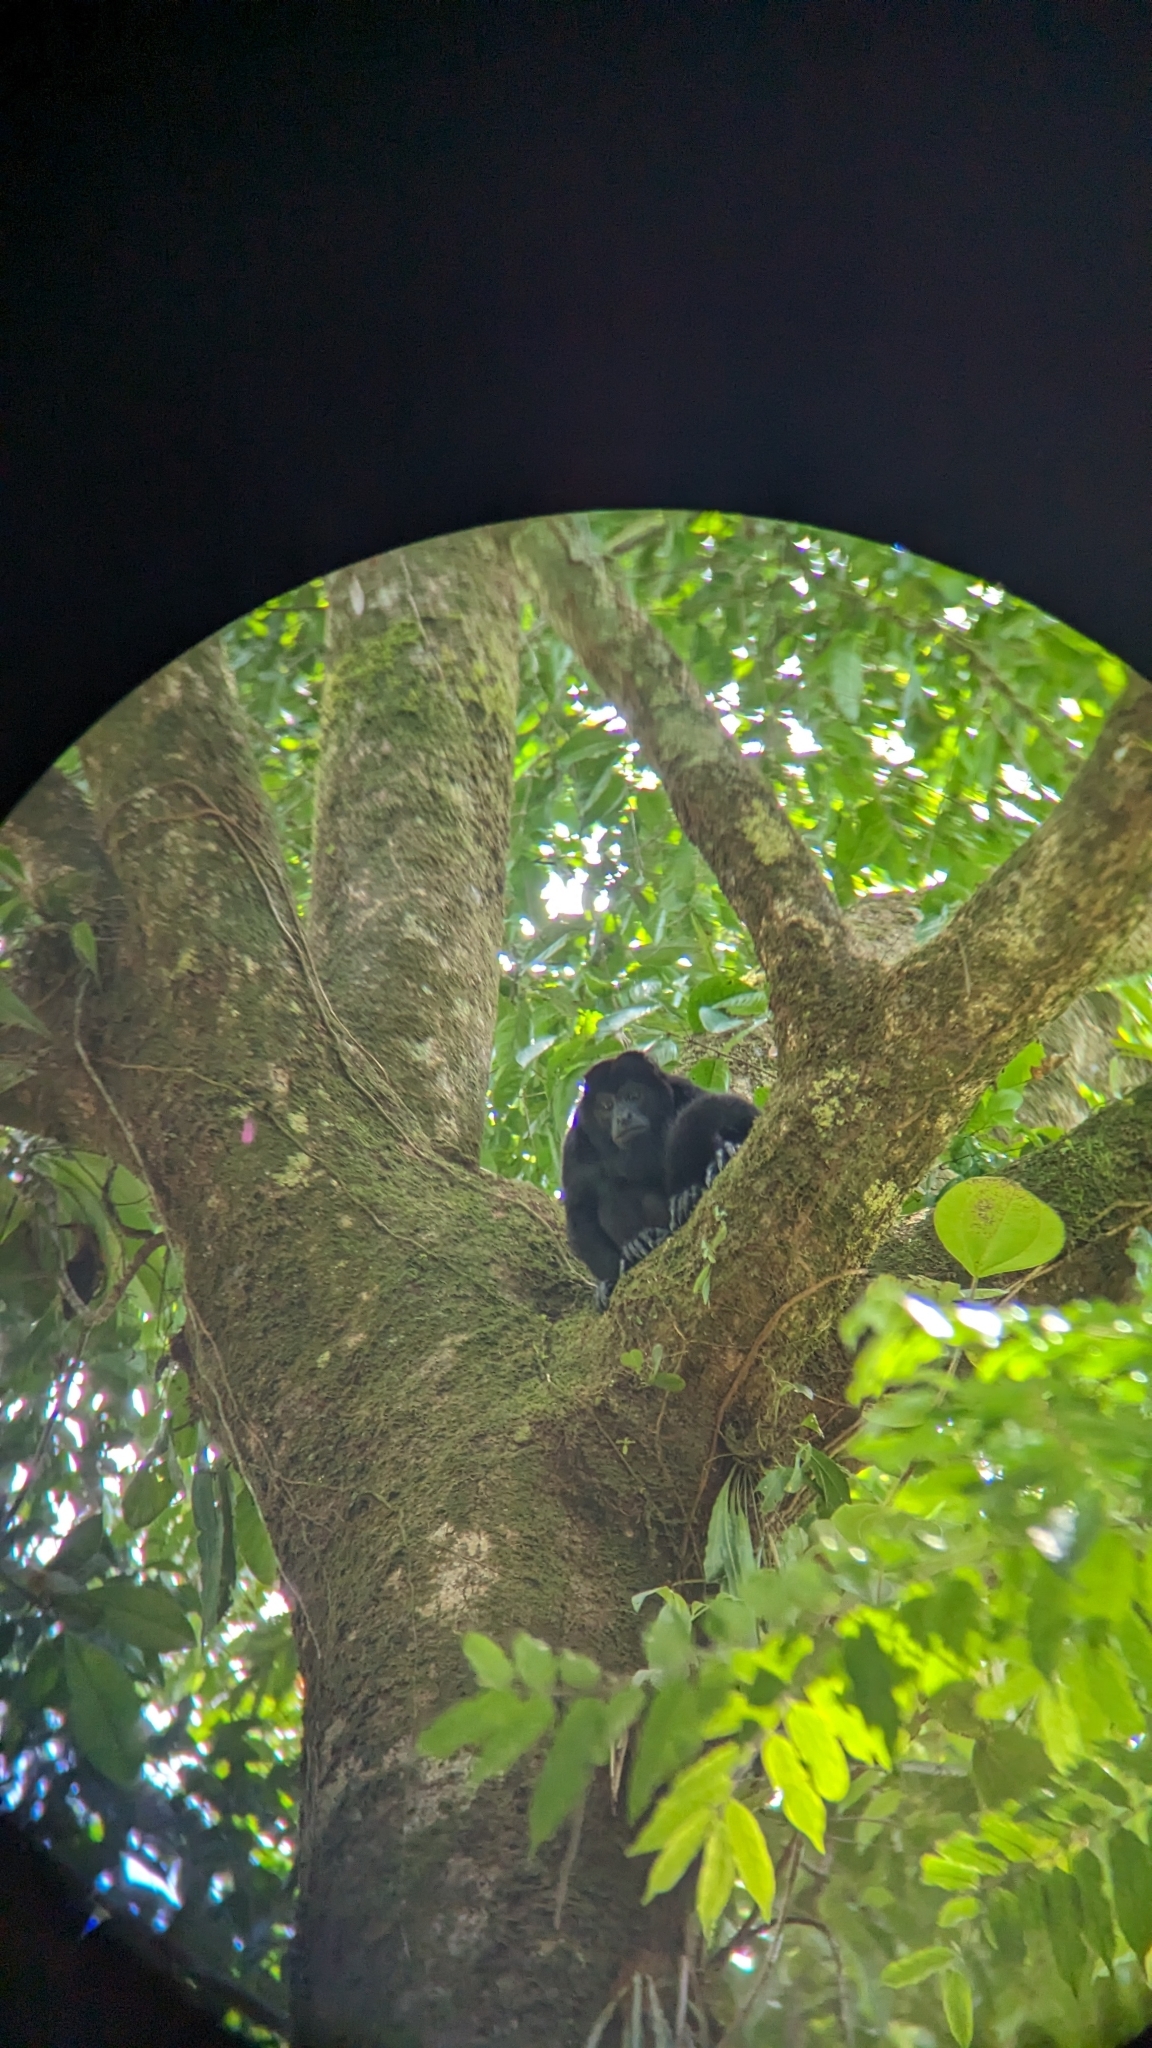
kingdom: Animalia
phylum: Chordata
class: Mammalia
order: Primates
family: Atelidae
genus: Alouatta
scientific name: Alouatta palliata
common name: Mantled howler
